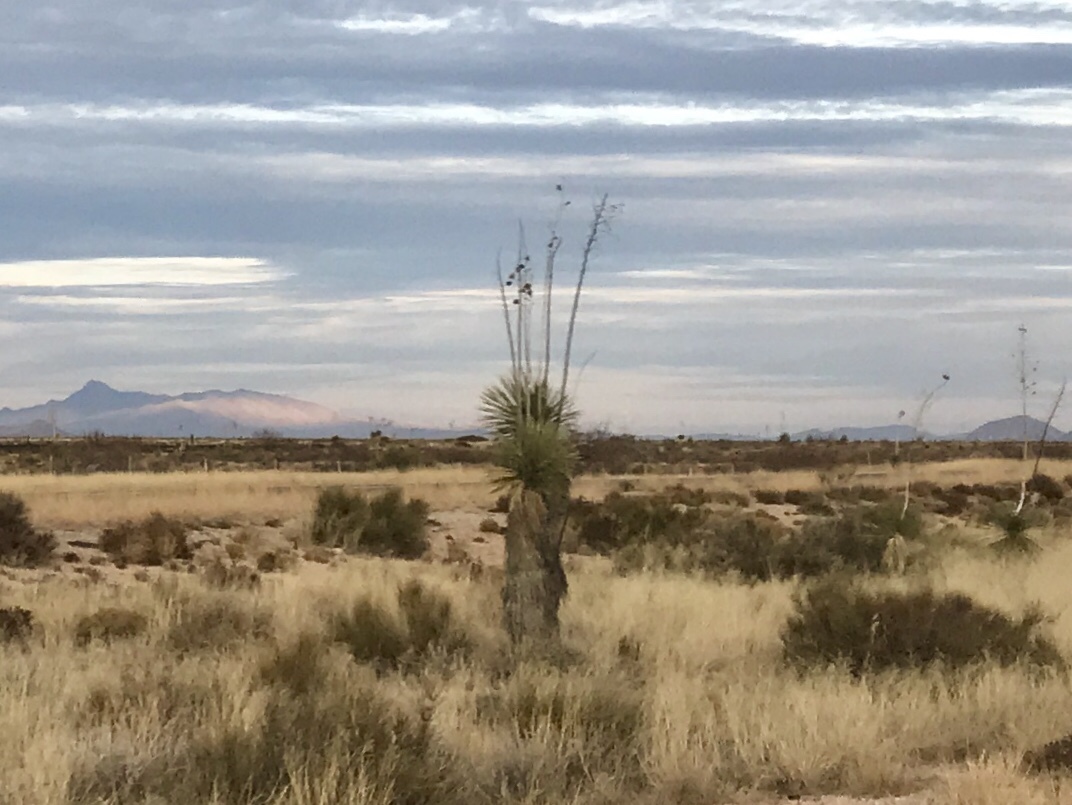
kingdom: Plantae
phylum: Tracheophyta
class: Liliopsida
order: Asparagales
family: Asparagaceae
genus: Yucca
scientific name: Yucca elata
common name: Palmella
